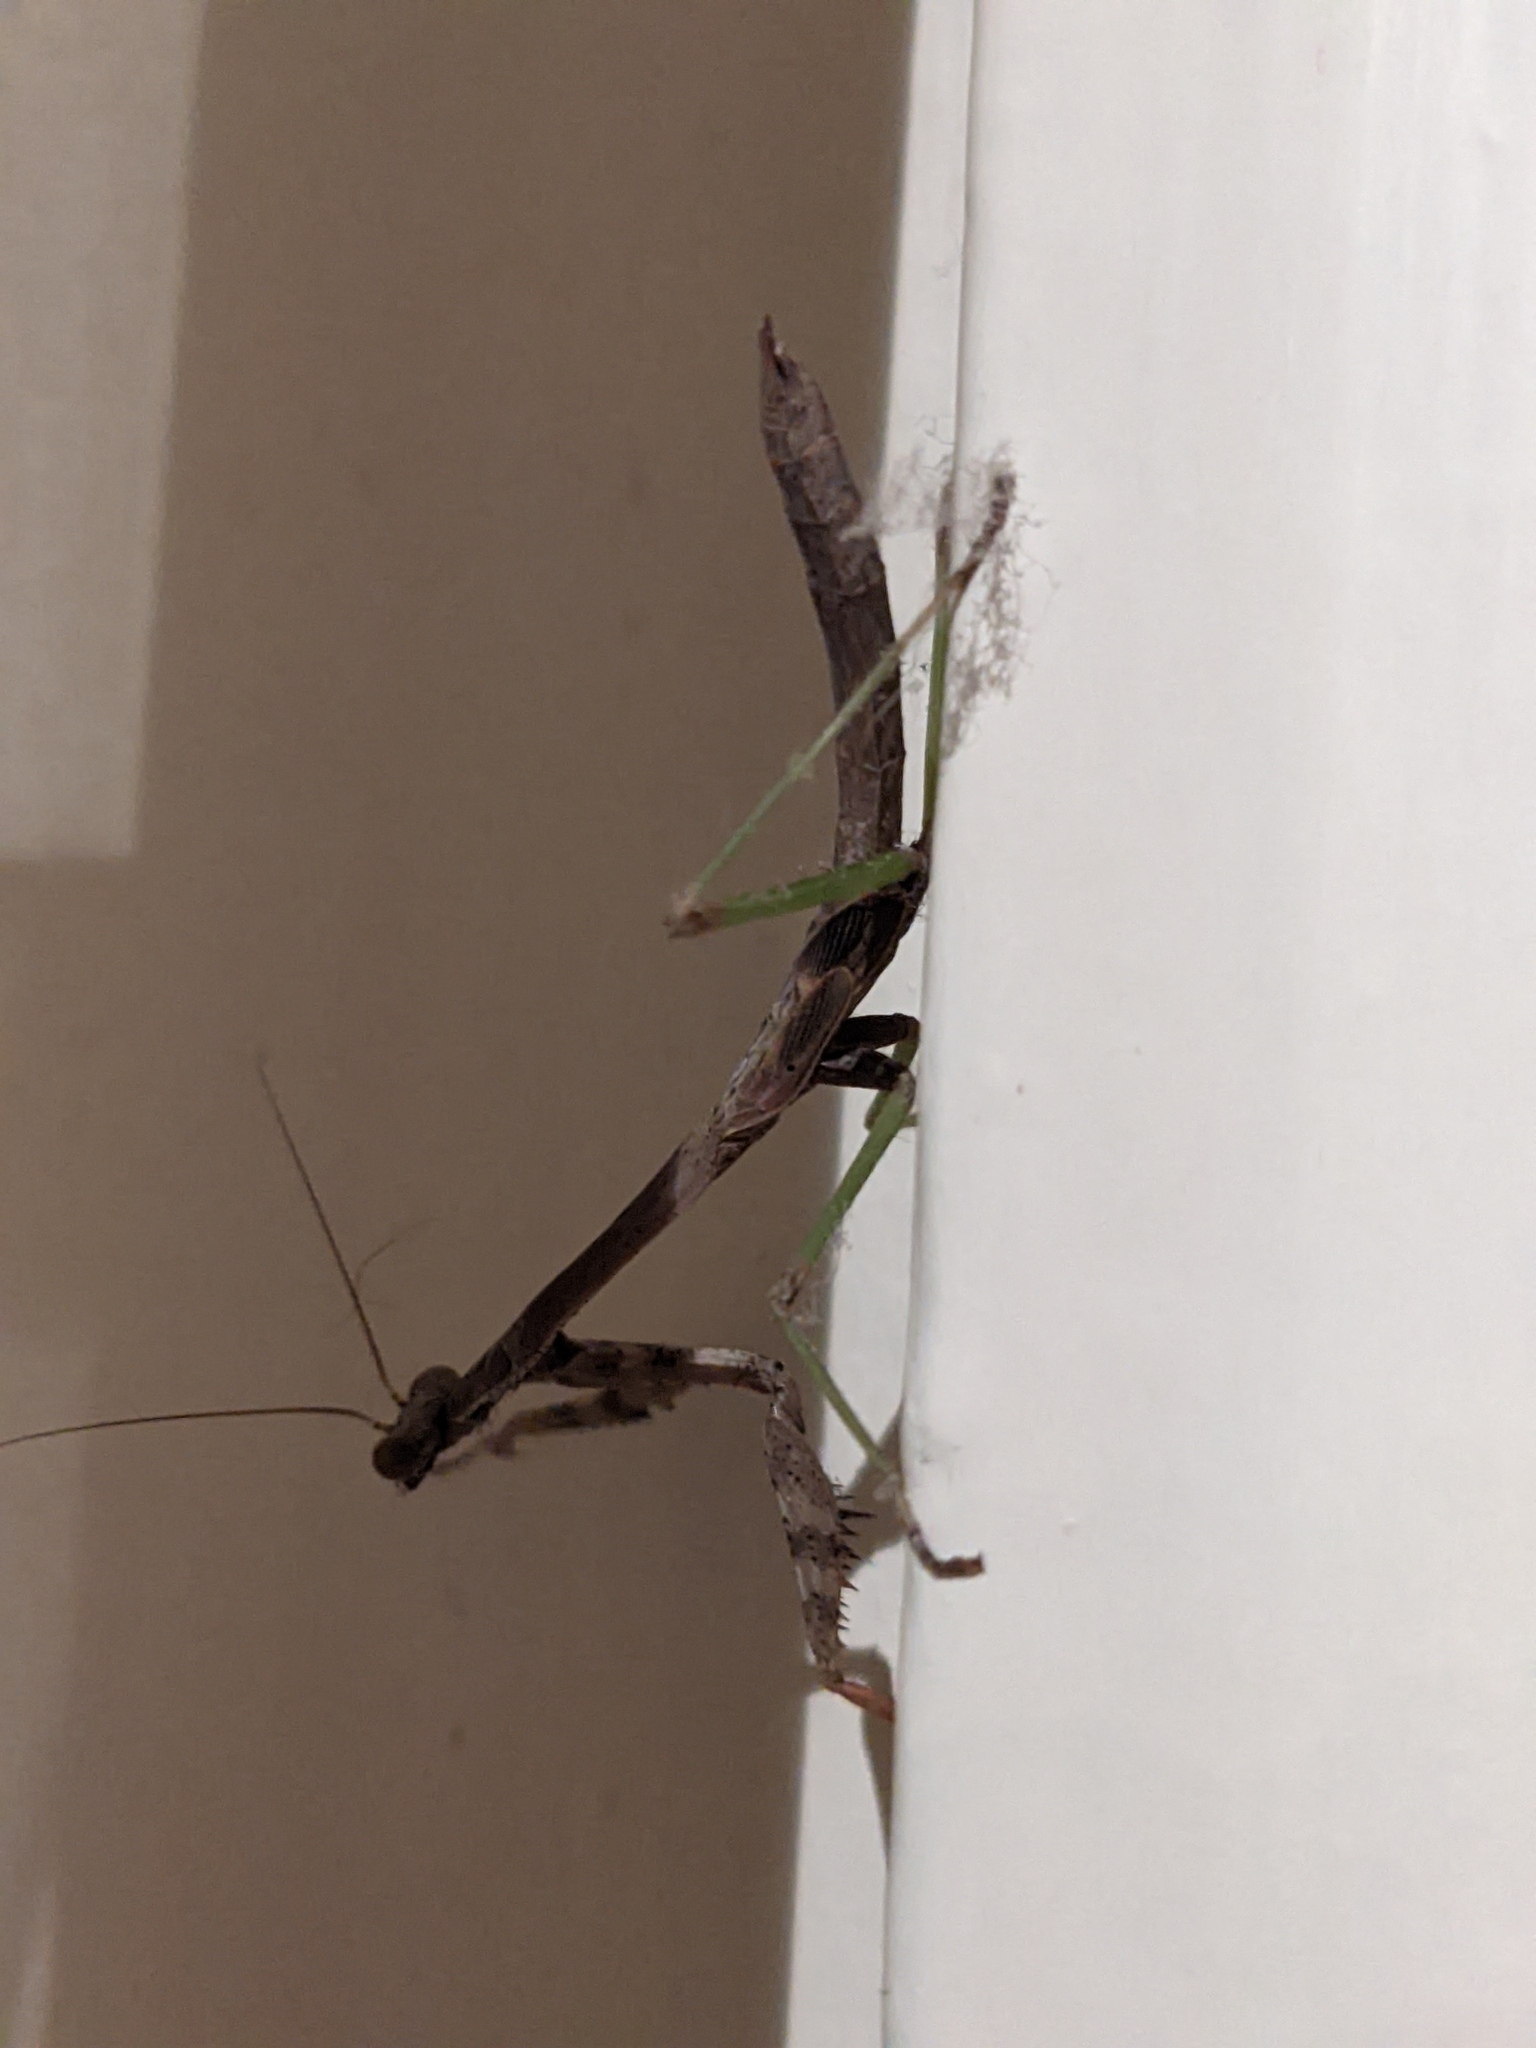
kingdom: Animalia
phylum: Arthropoda
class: Insecta
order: Mantodea
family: Mantidae
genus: Stagmomantis
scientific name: Stagmomantis carolina
